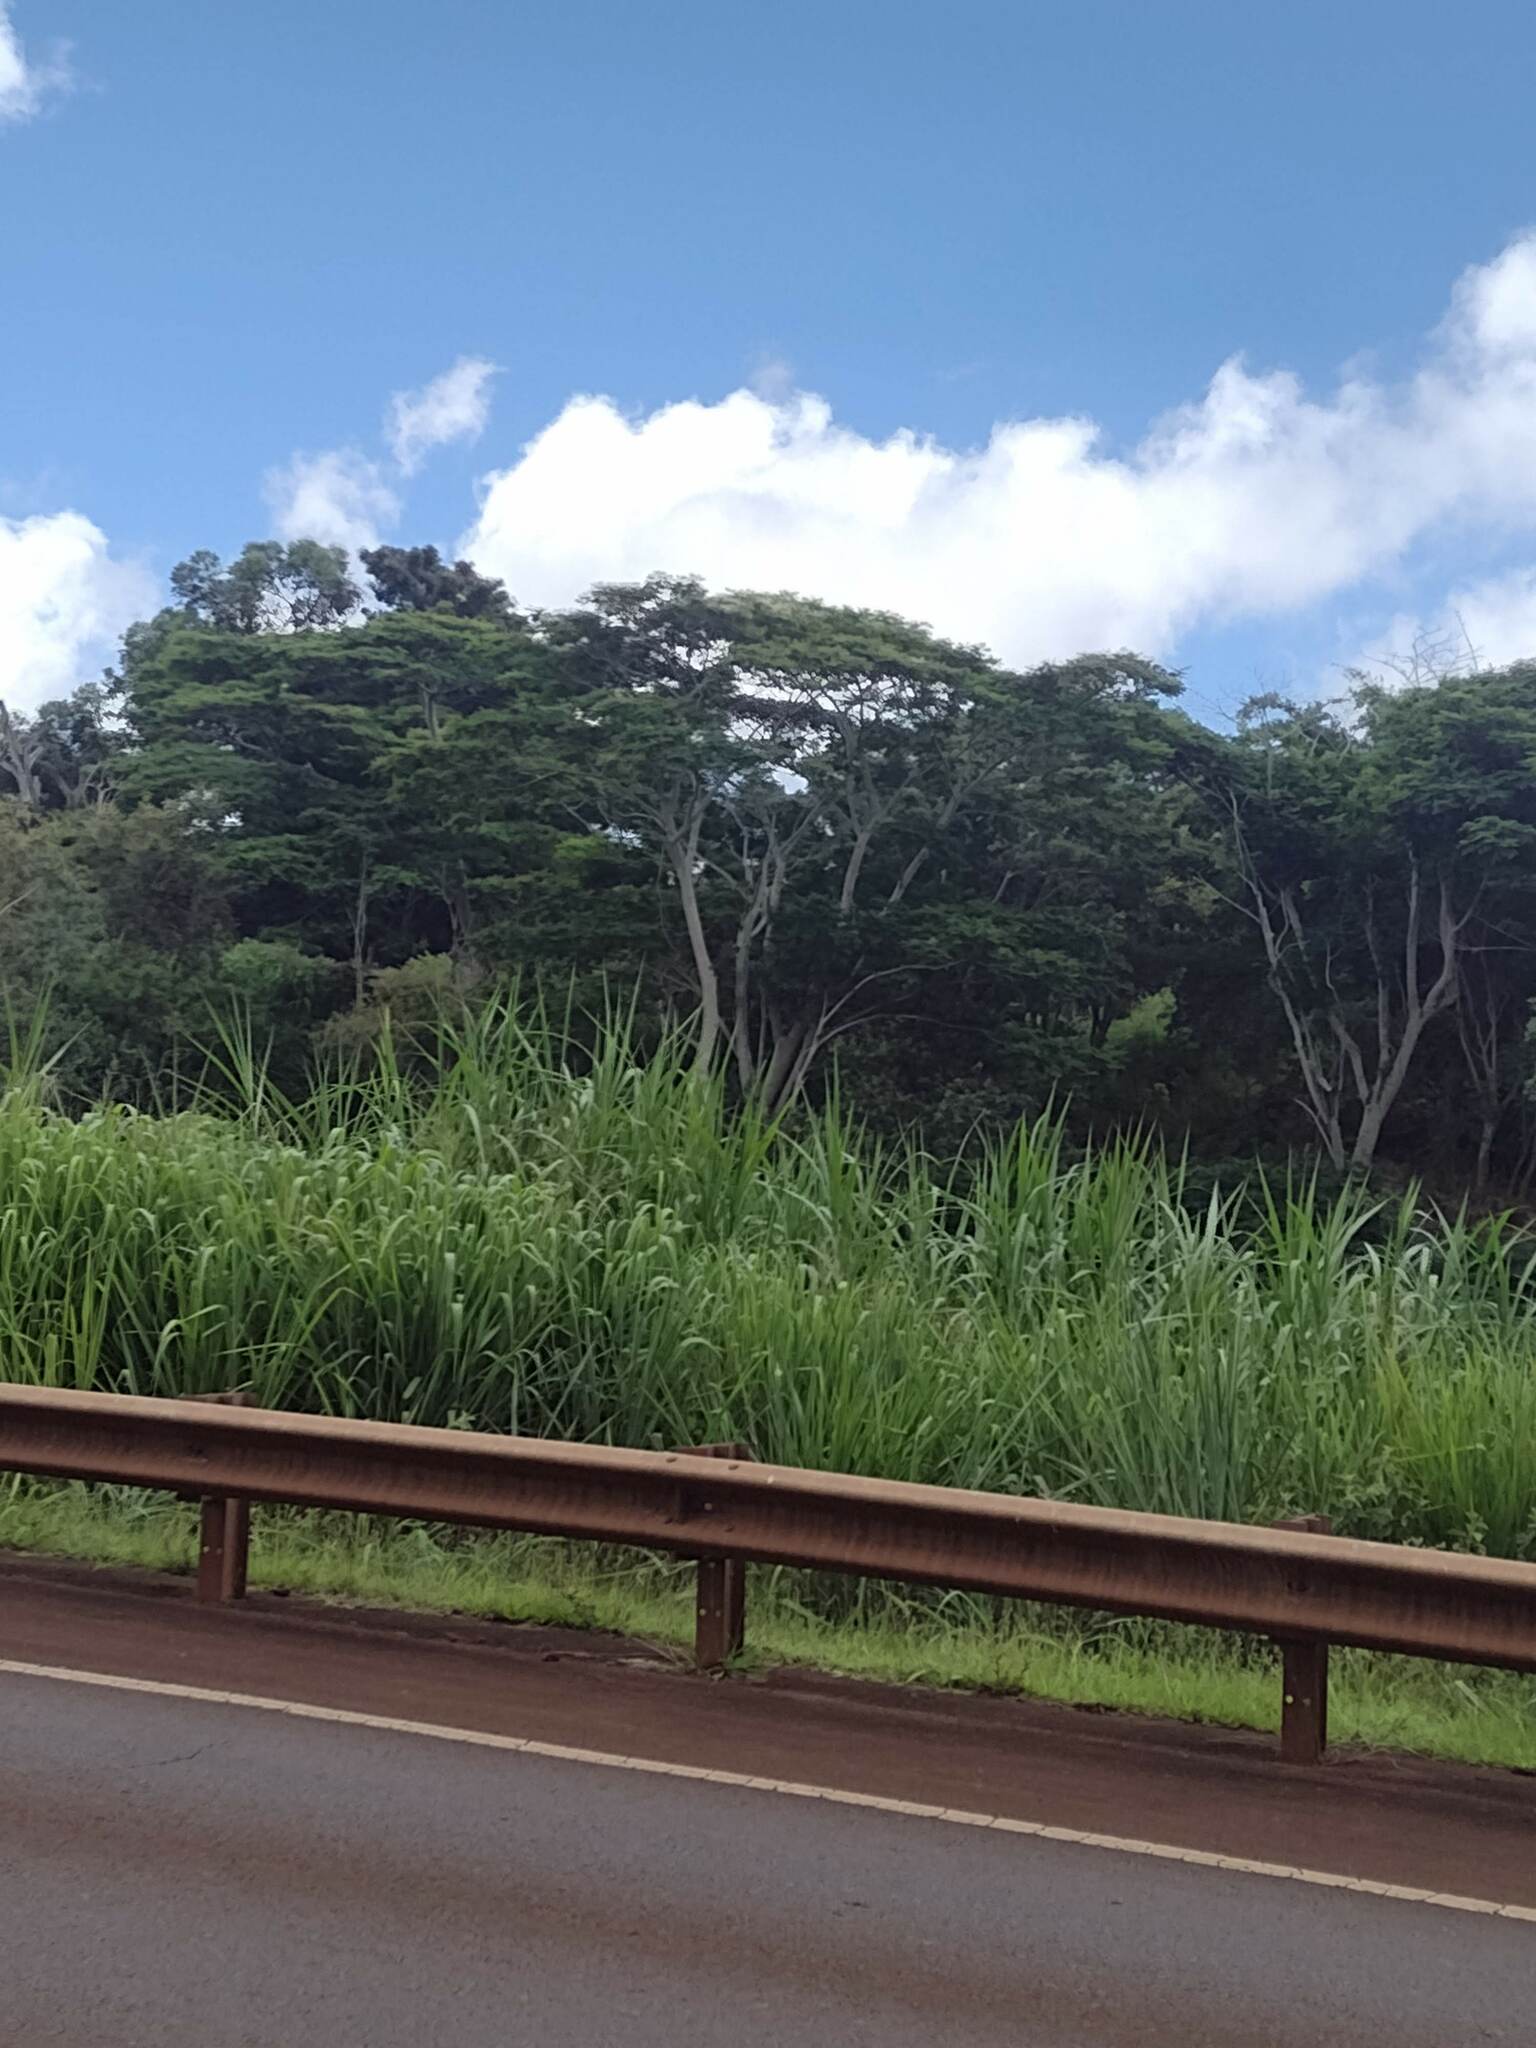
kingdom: Plantae
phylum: Tracheophyta
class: Magnoliopsida
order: Fabales
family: Fabaceae
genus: Falcataria
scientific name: Falcataria falcata
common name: Moluccan albizia
